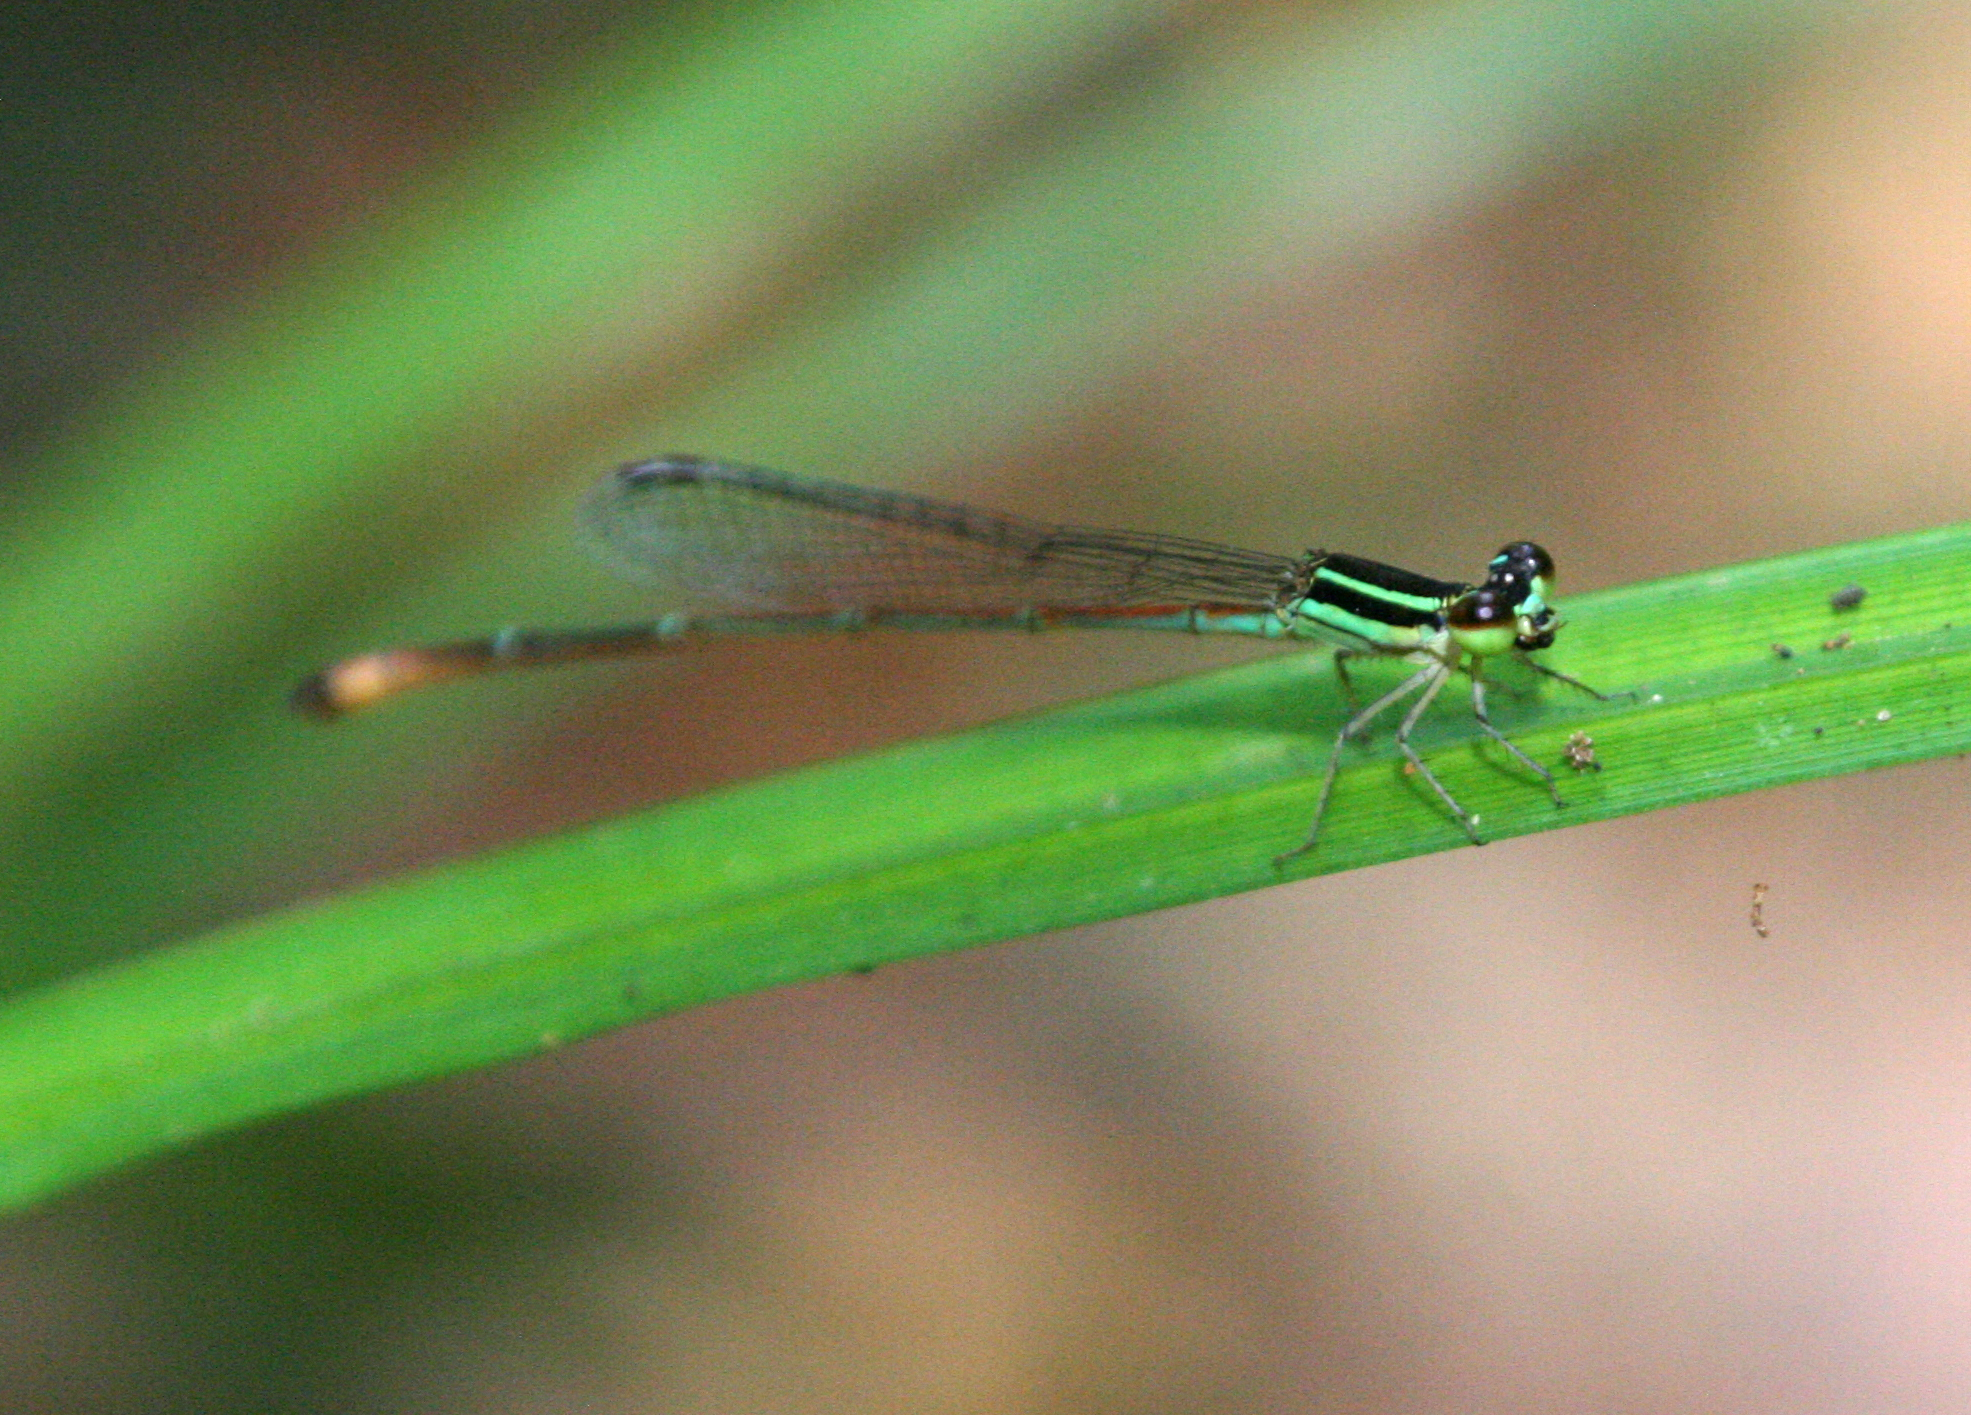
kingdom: Animalia
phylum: Arthropoda
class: Insecta
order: Odonata
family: Coenagrionidae
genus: Argiocnemis
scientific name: Argiocnemis rubescens
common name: Red-tipped shadefly
